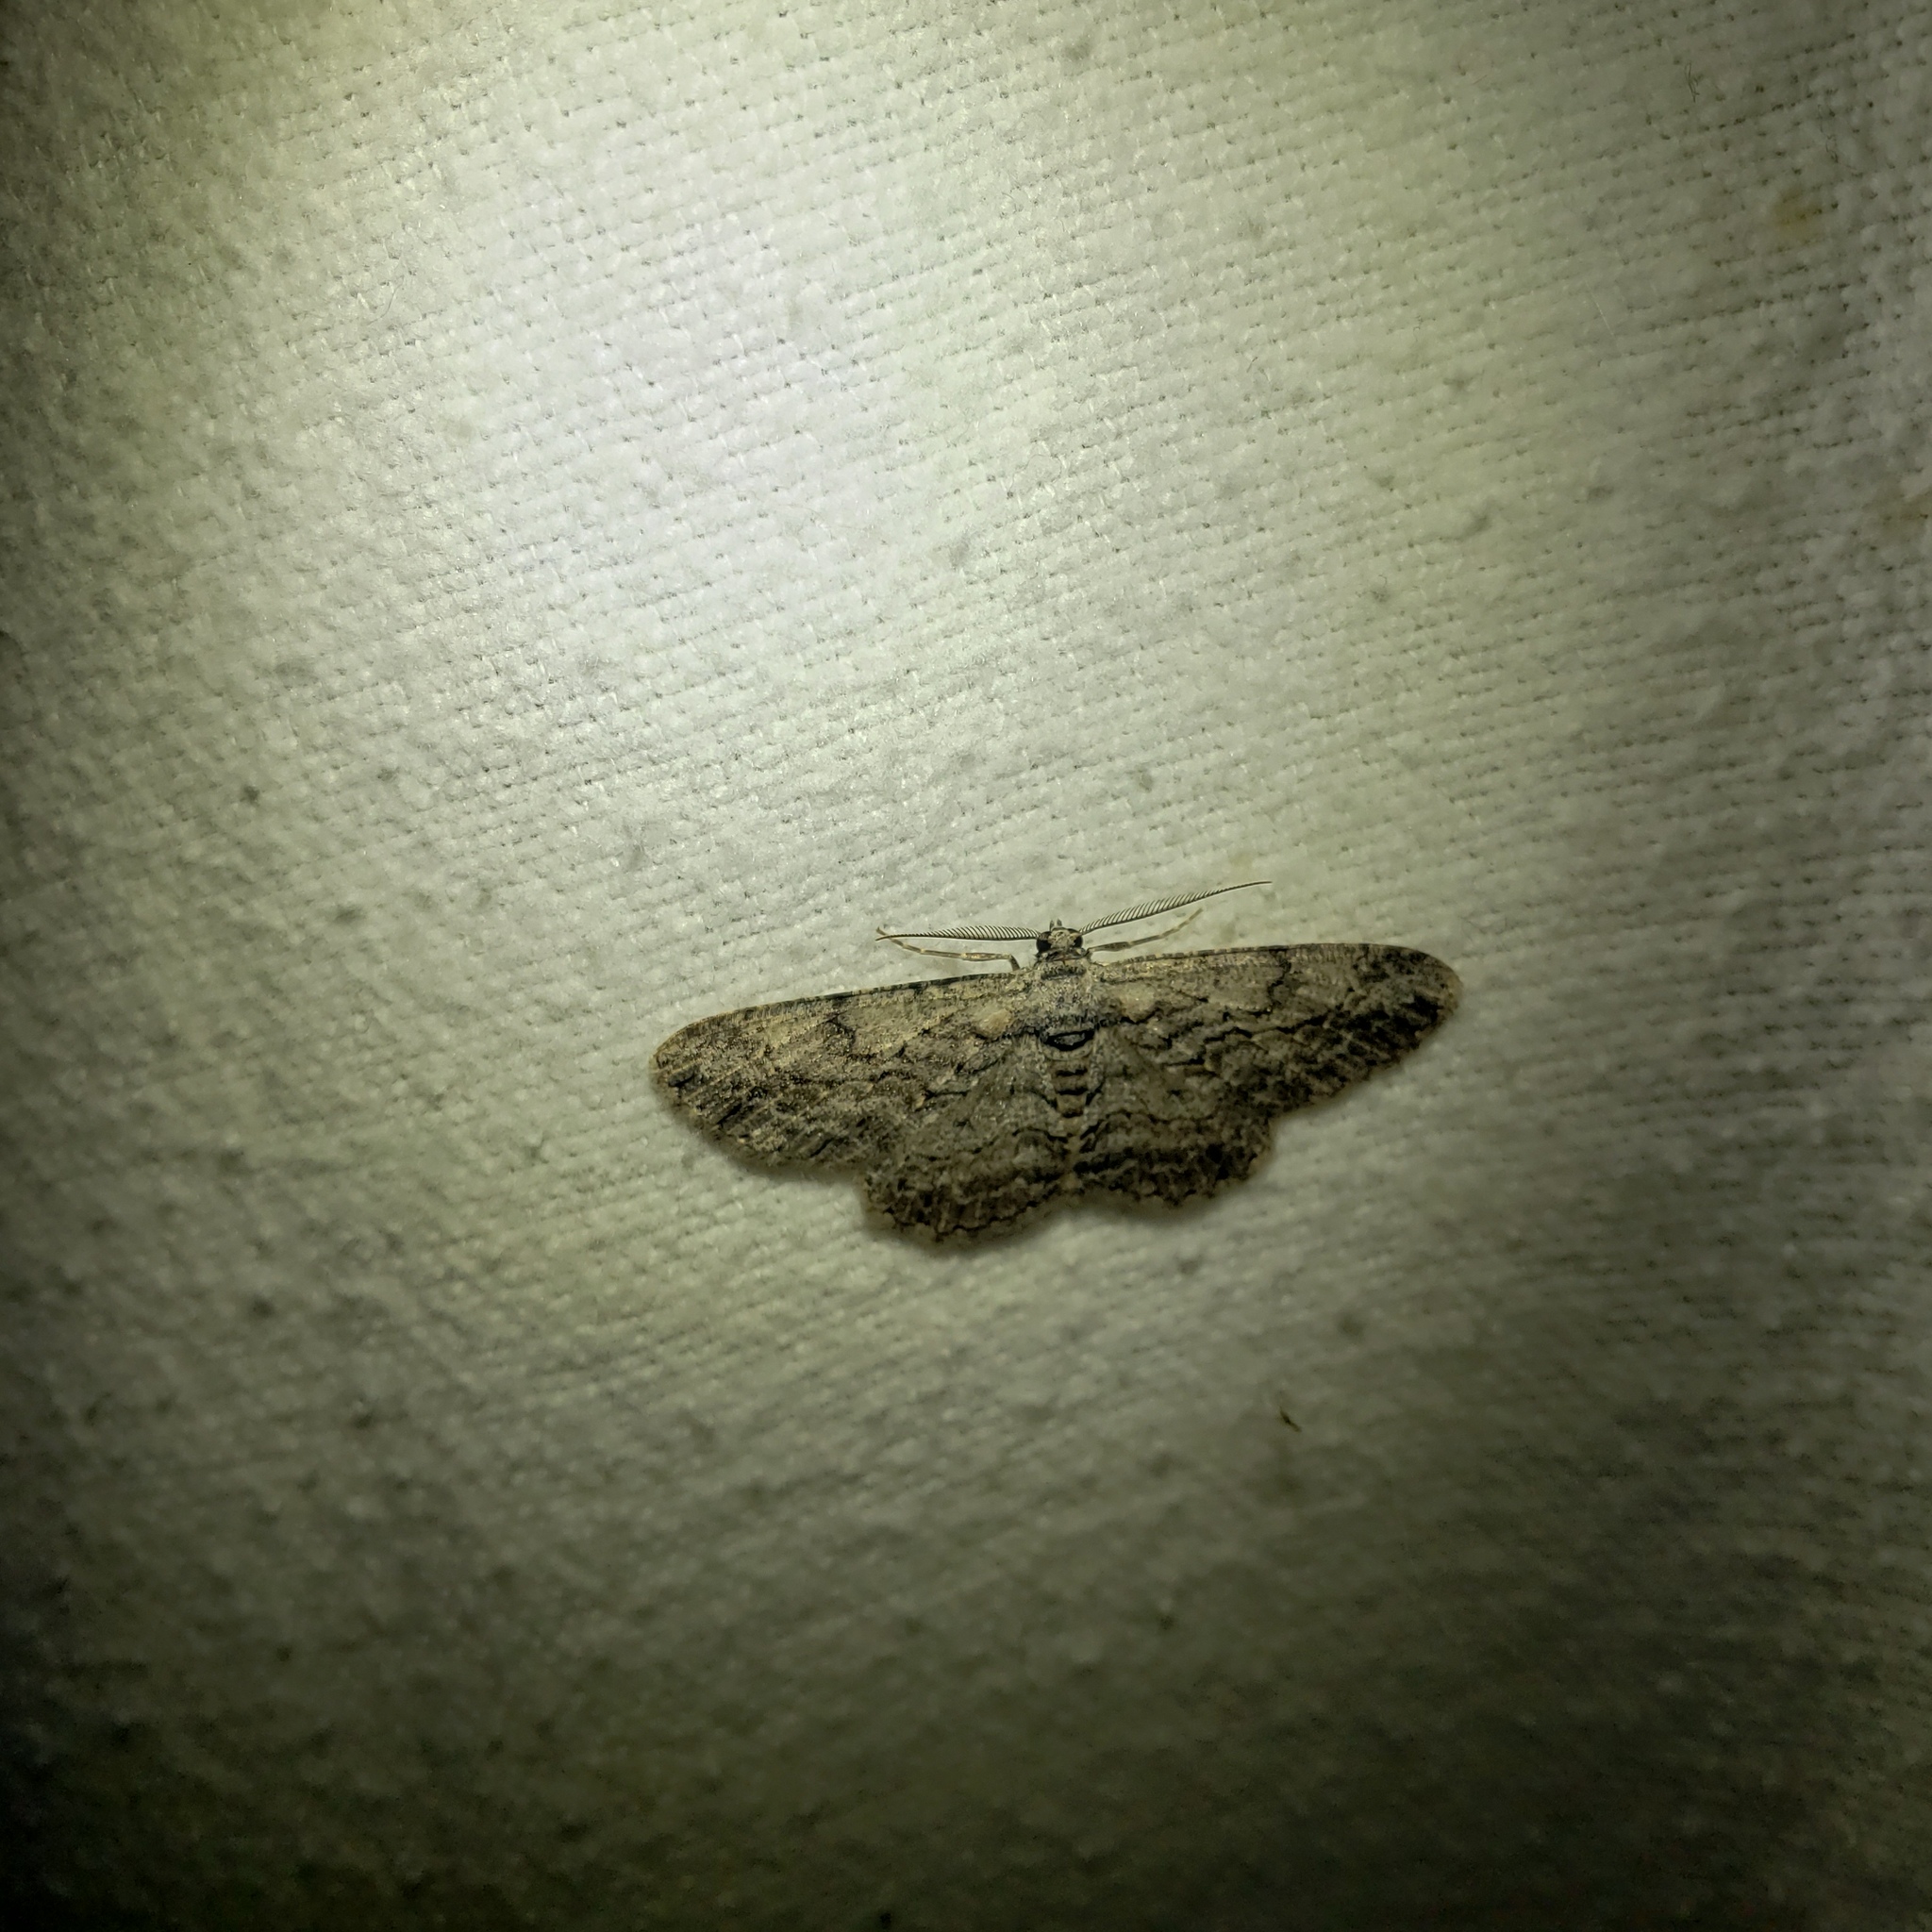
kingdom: Animalia
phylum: Arthropoda
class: Insecta
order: Lepidoptera
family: Geometridae
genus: Ectropis
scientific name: Ectropis crepuscularia
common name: Engrailed
